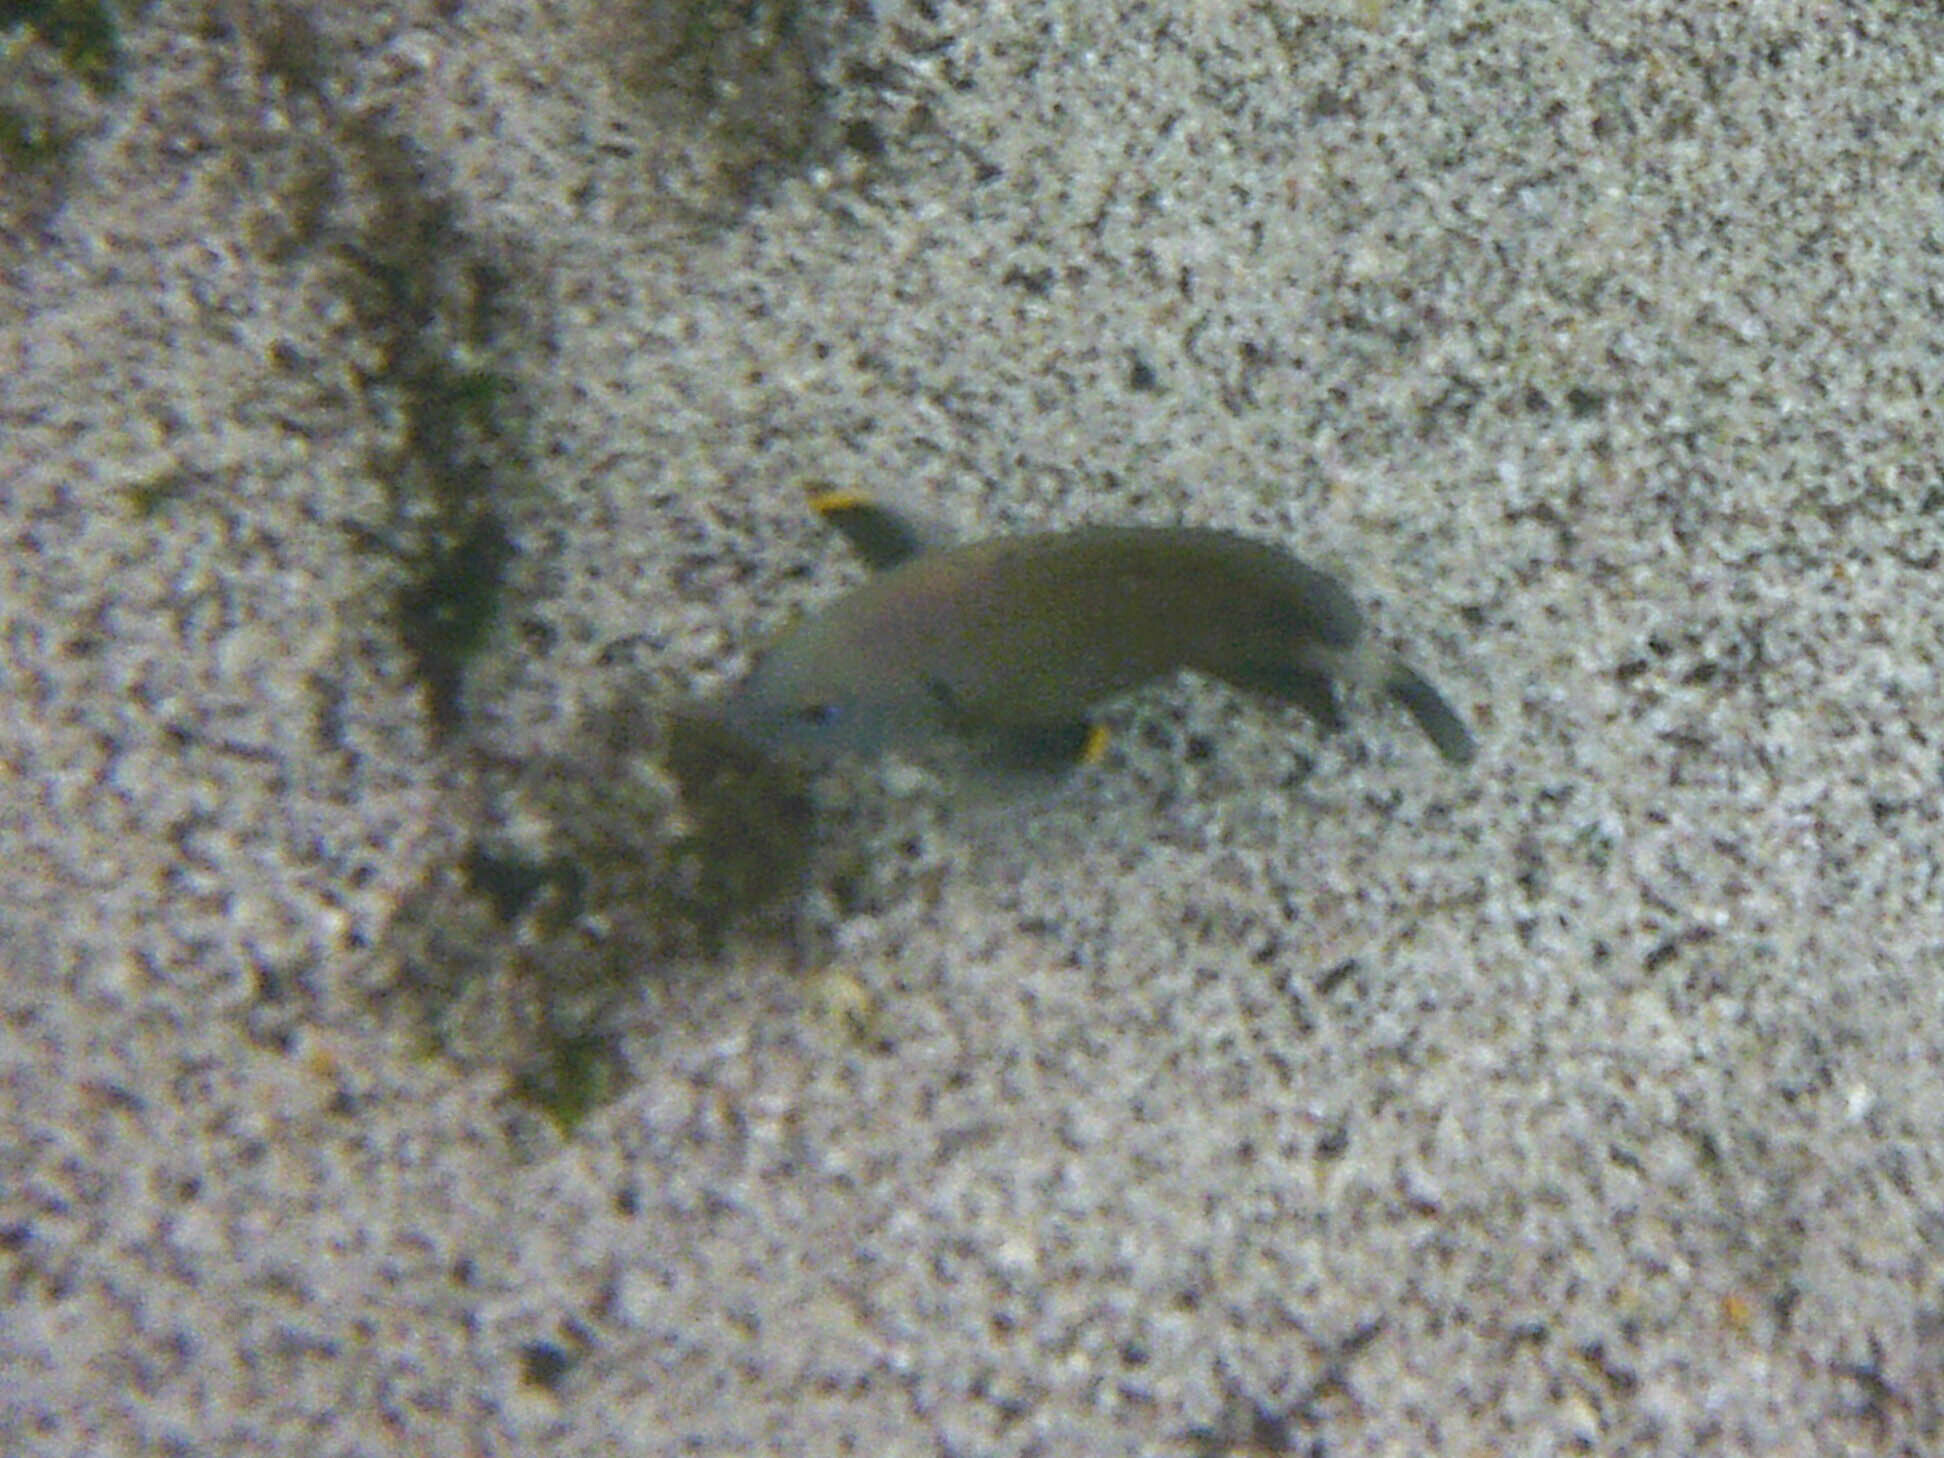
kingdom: Animalia
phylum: Chordata
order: Perciformes
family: Pomacentridae
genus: Stegastes
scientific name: Stegastes beebei
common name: Galapagos ringtail damselfish
